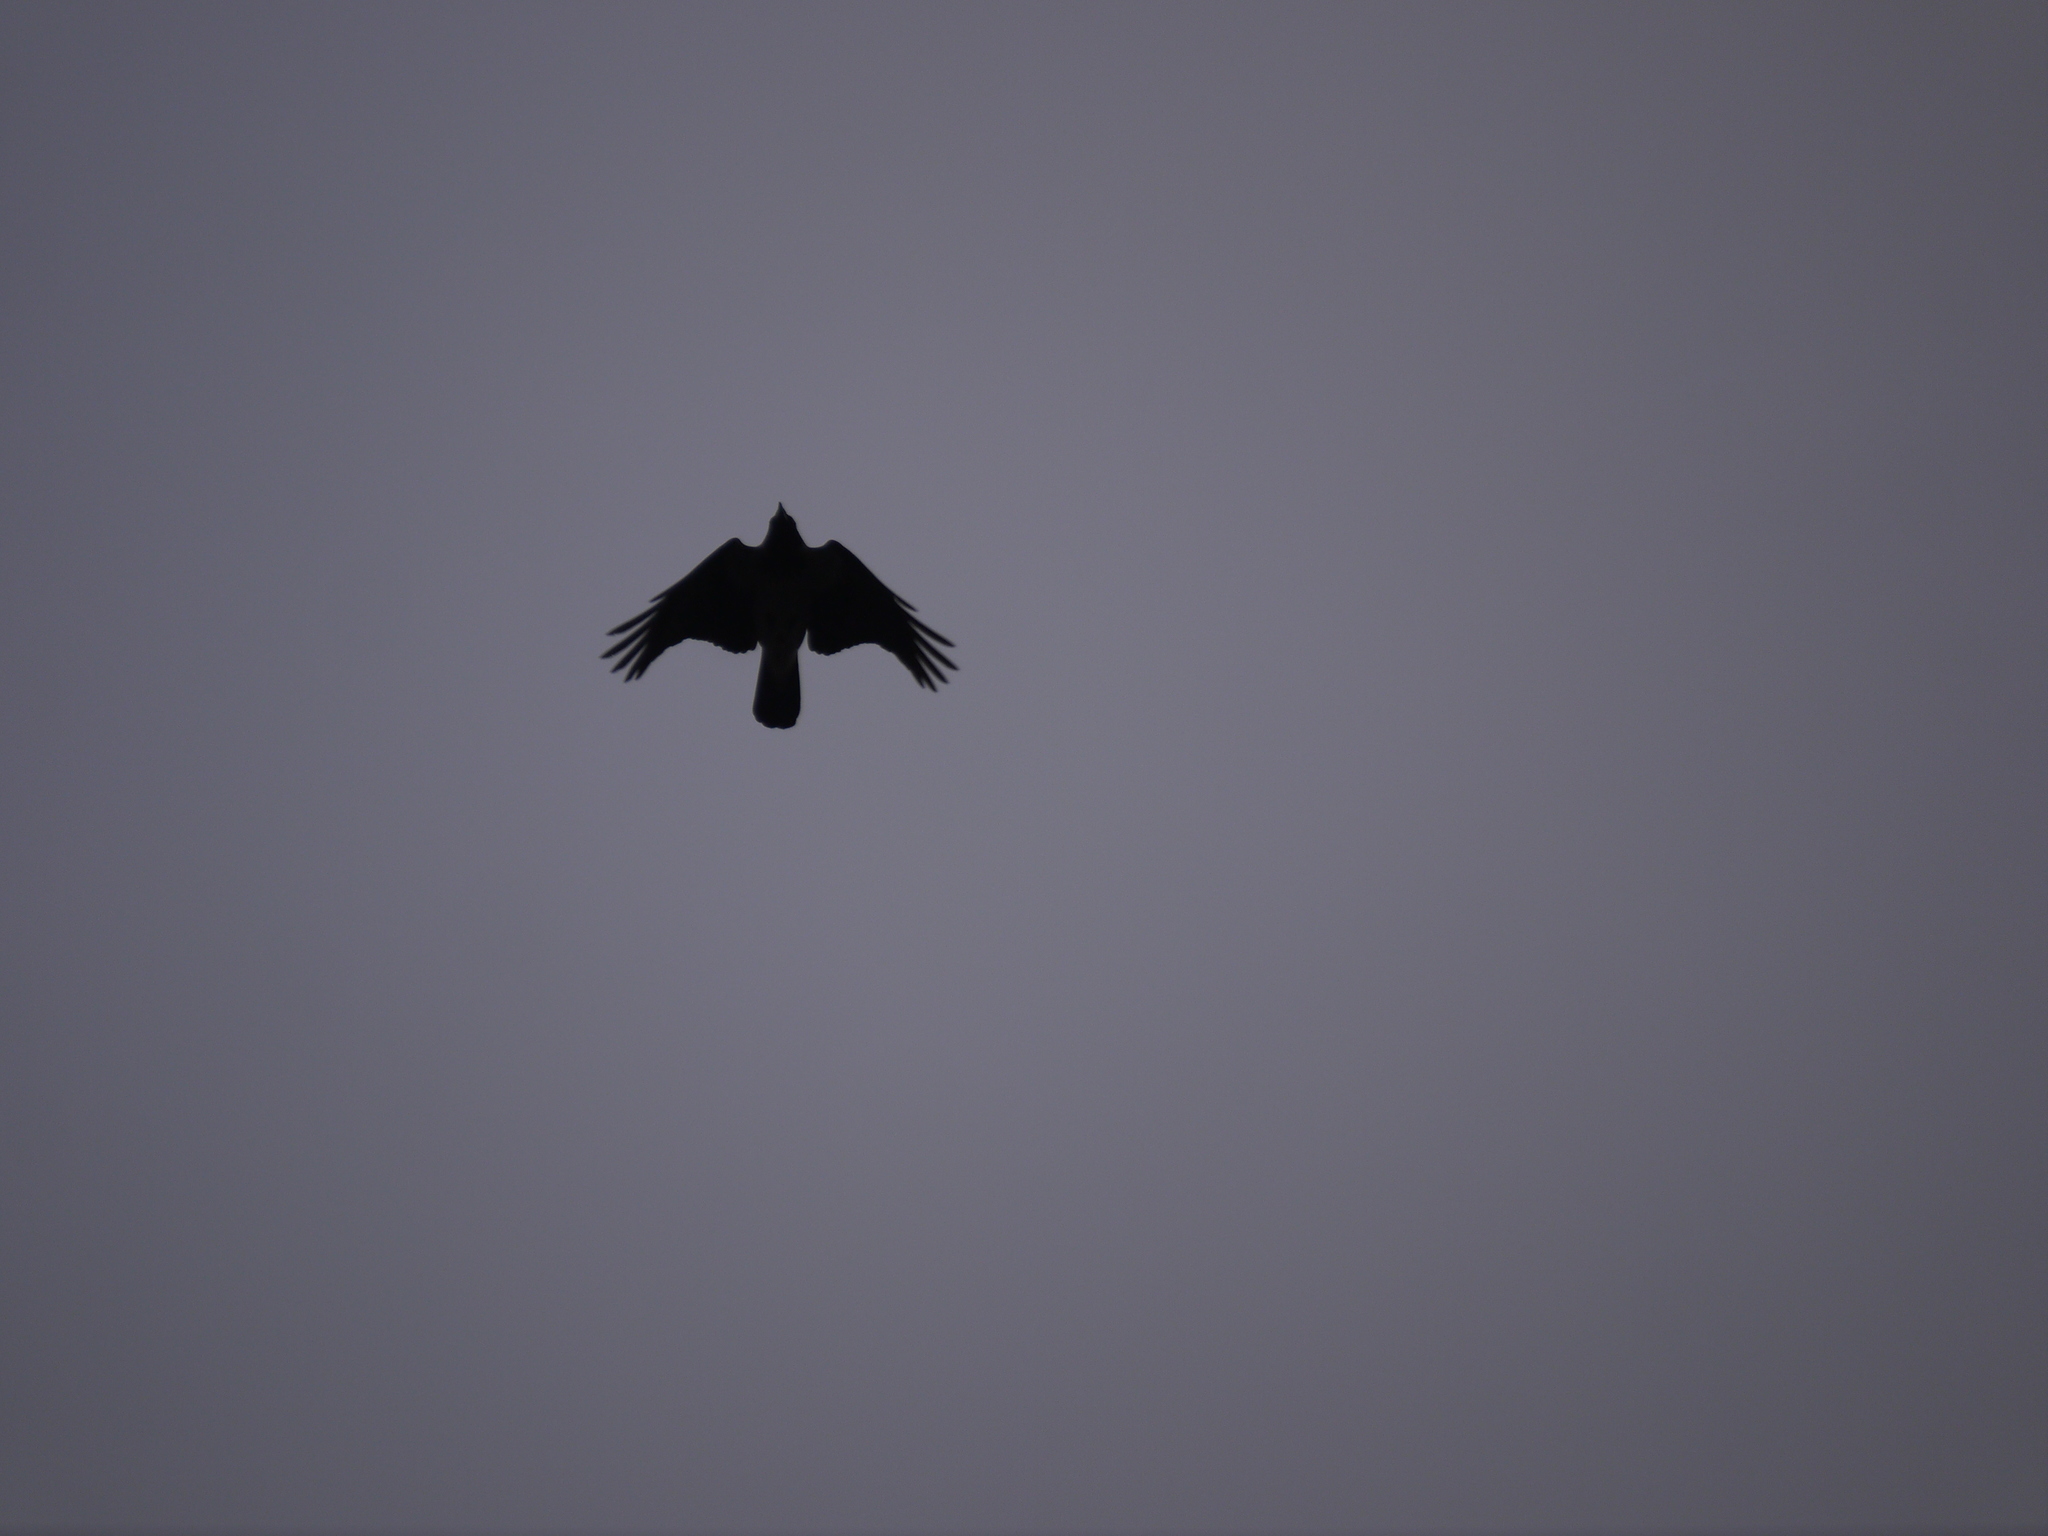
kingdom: Animalia
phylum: Chordata
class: Aves
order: Passeriformes
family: Corvidae
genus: Corvus
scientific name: Corvus cornix
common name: Hooded crow
